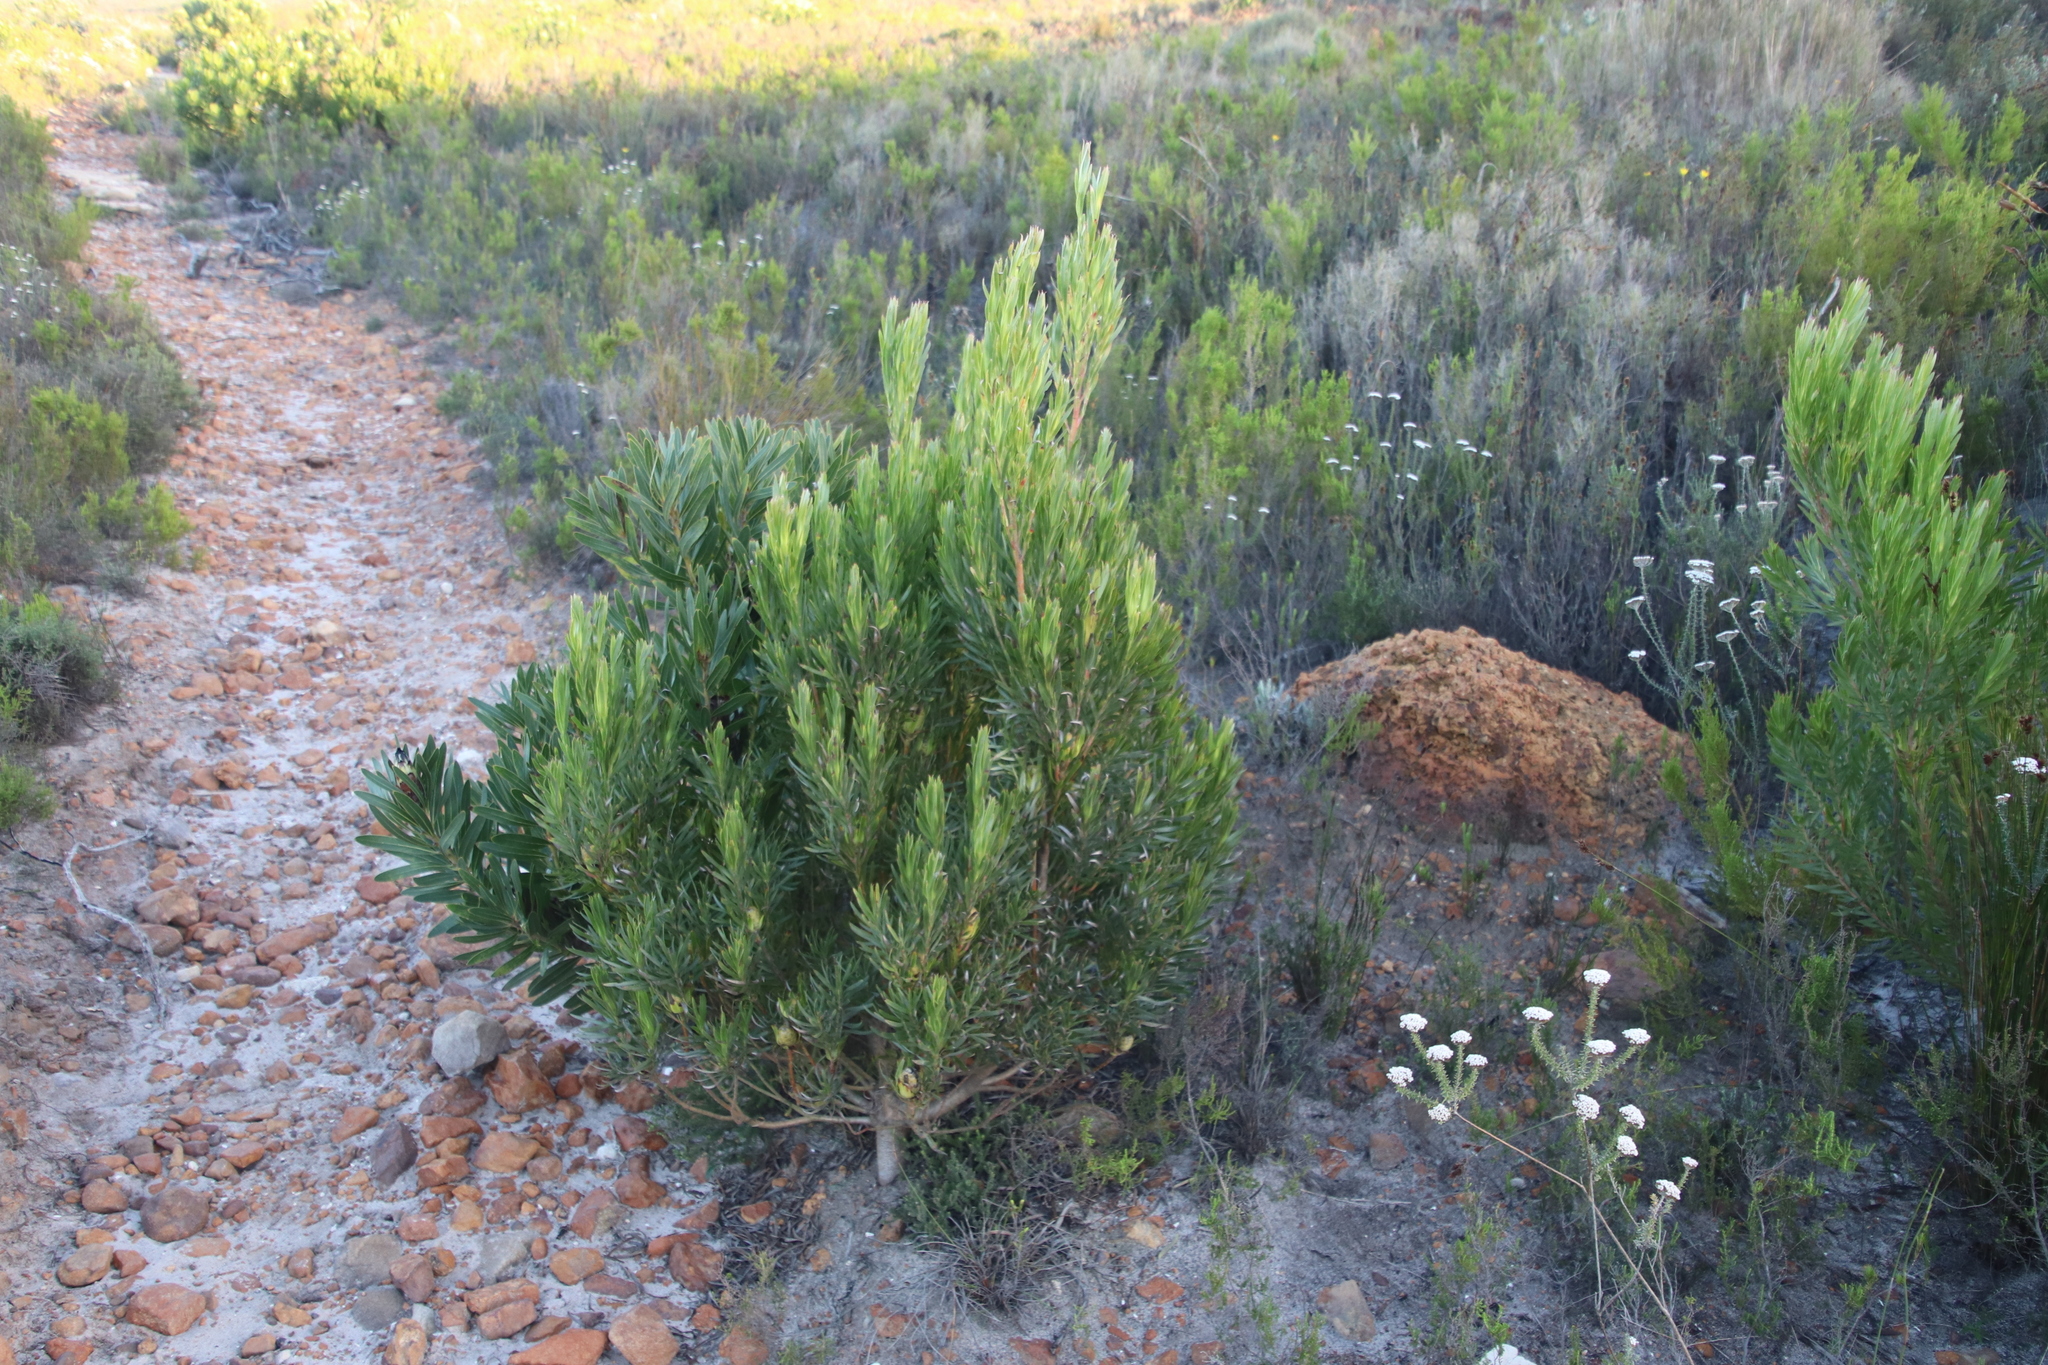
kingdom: Plantae
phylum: Tracheophyta
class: Magnoliopsida
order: Proteales
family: Proteaceae
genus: Leucadendron
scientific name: Leucadendron xanthoconus
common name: Sickle-leaf conebush
